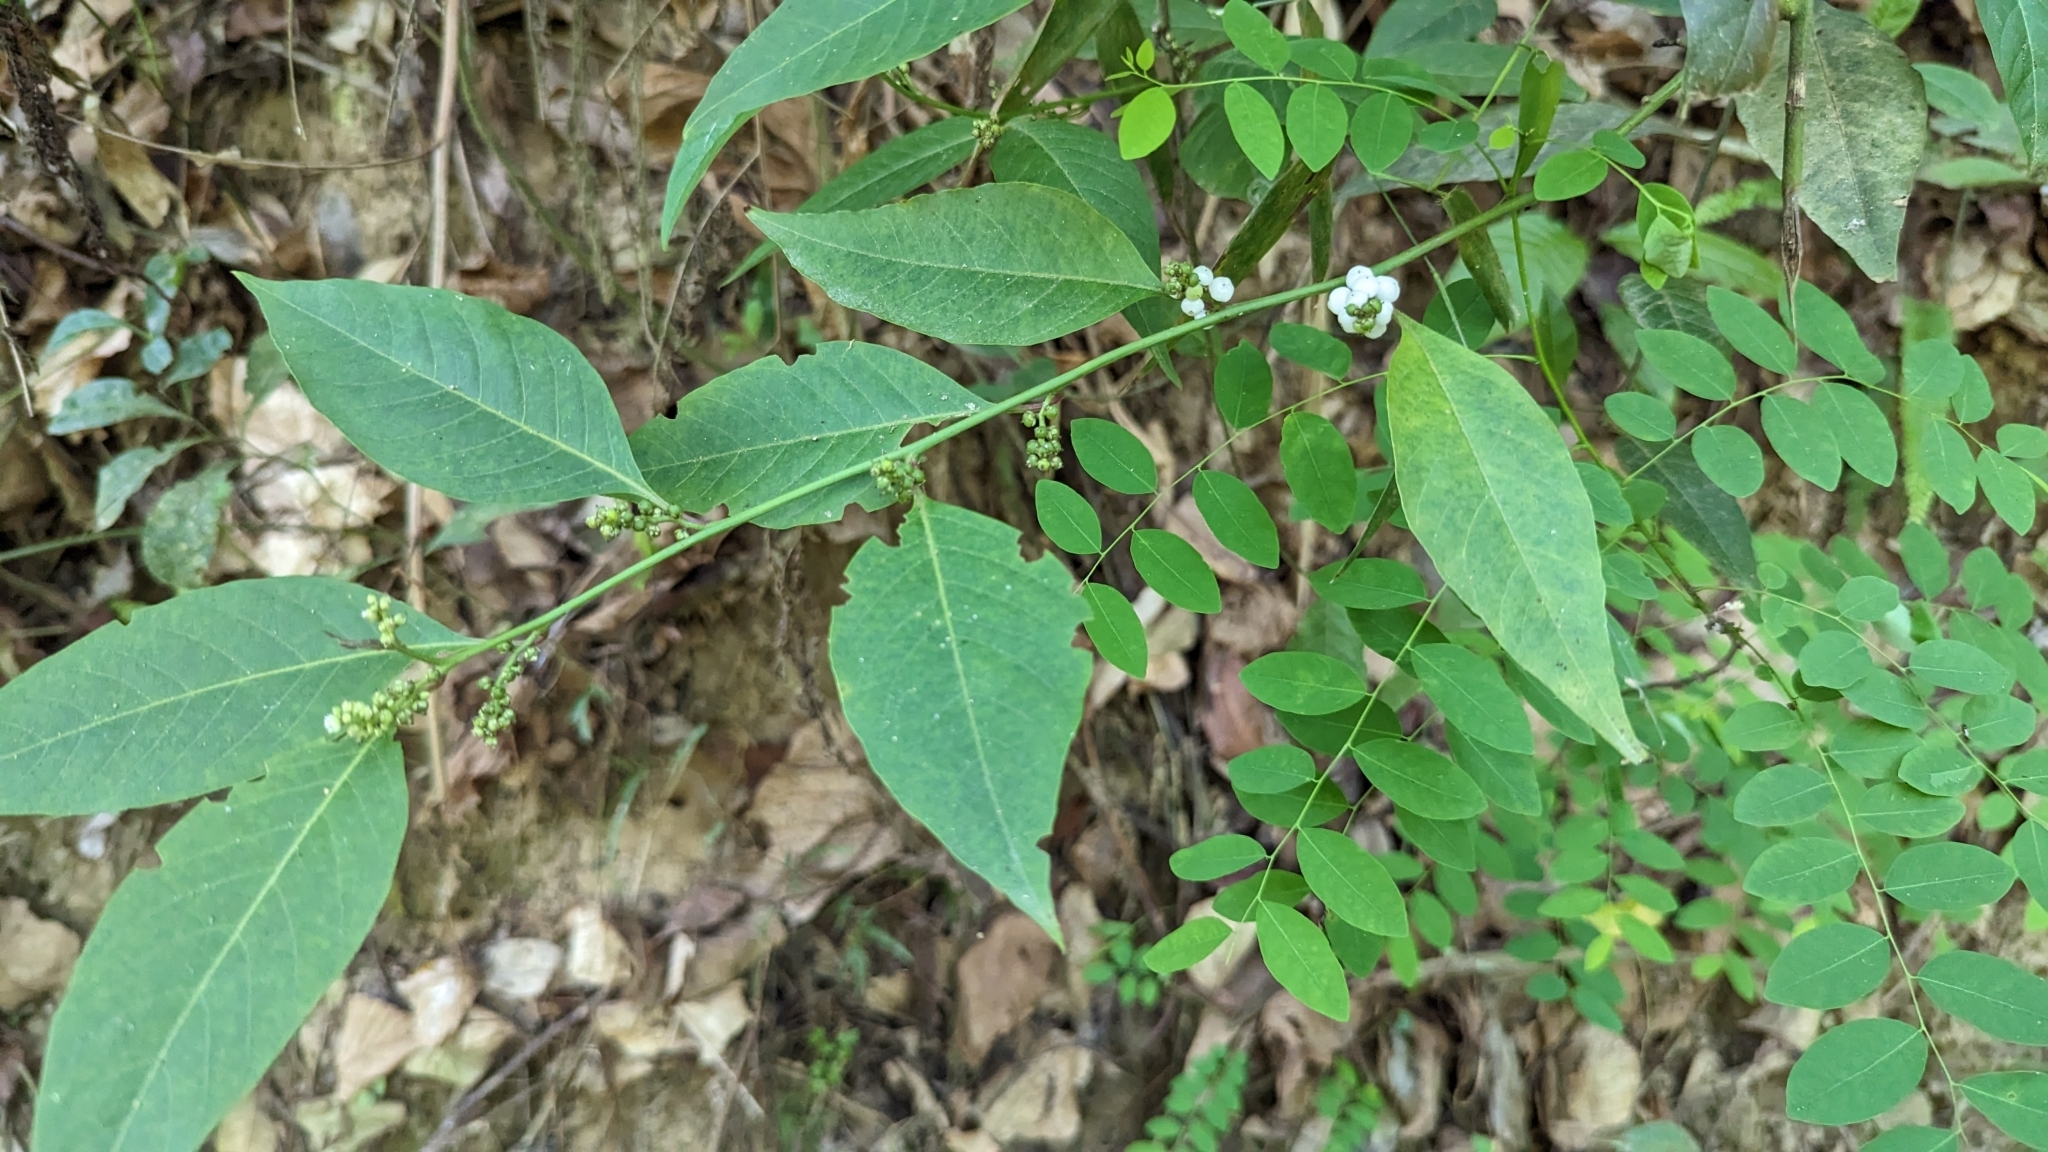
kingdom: Plantae
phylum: Tracheophyta
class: Magnoliopsida
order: Caryophyllales
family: Amaranthaceae
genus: Deeringia
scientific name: Deeringia polysperma
